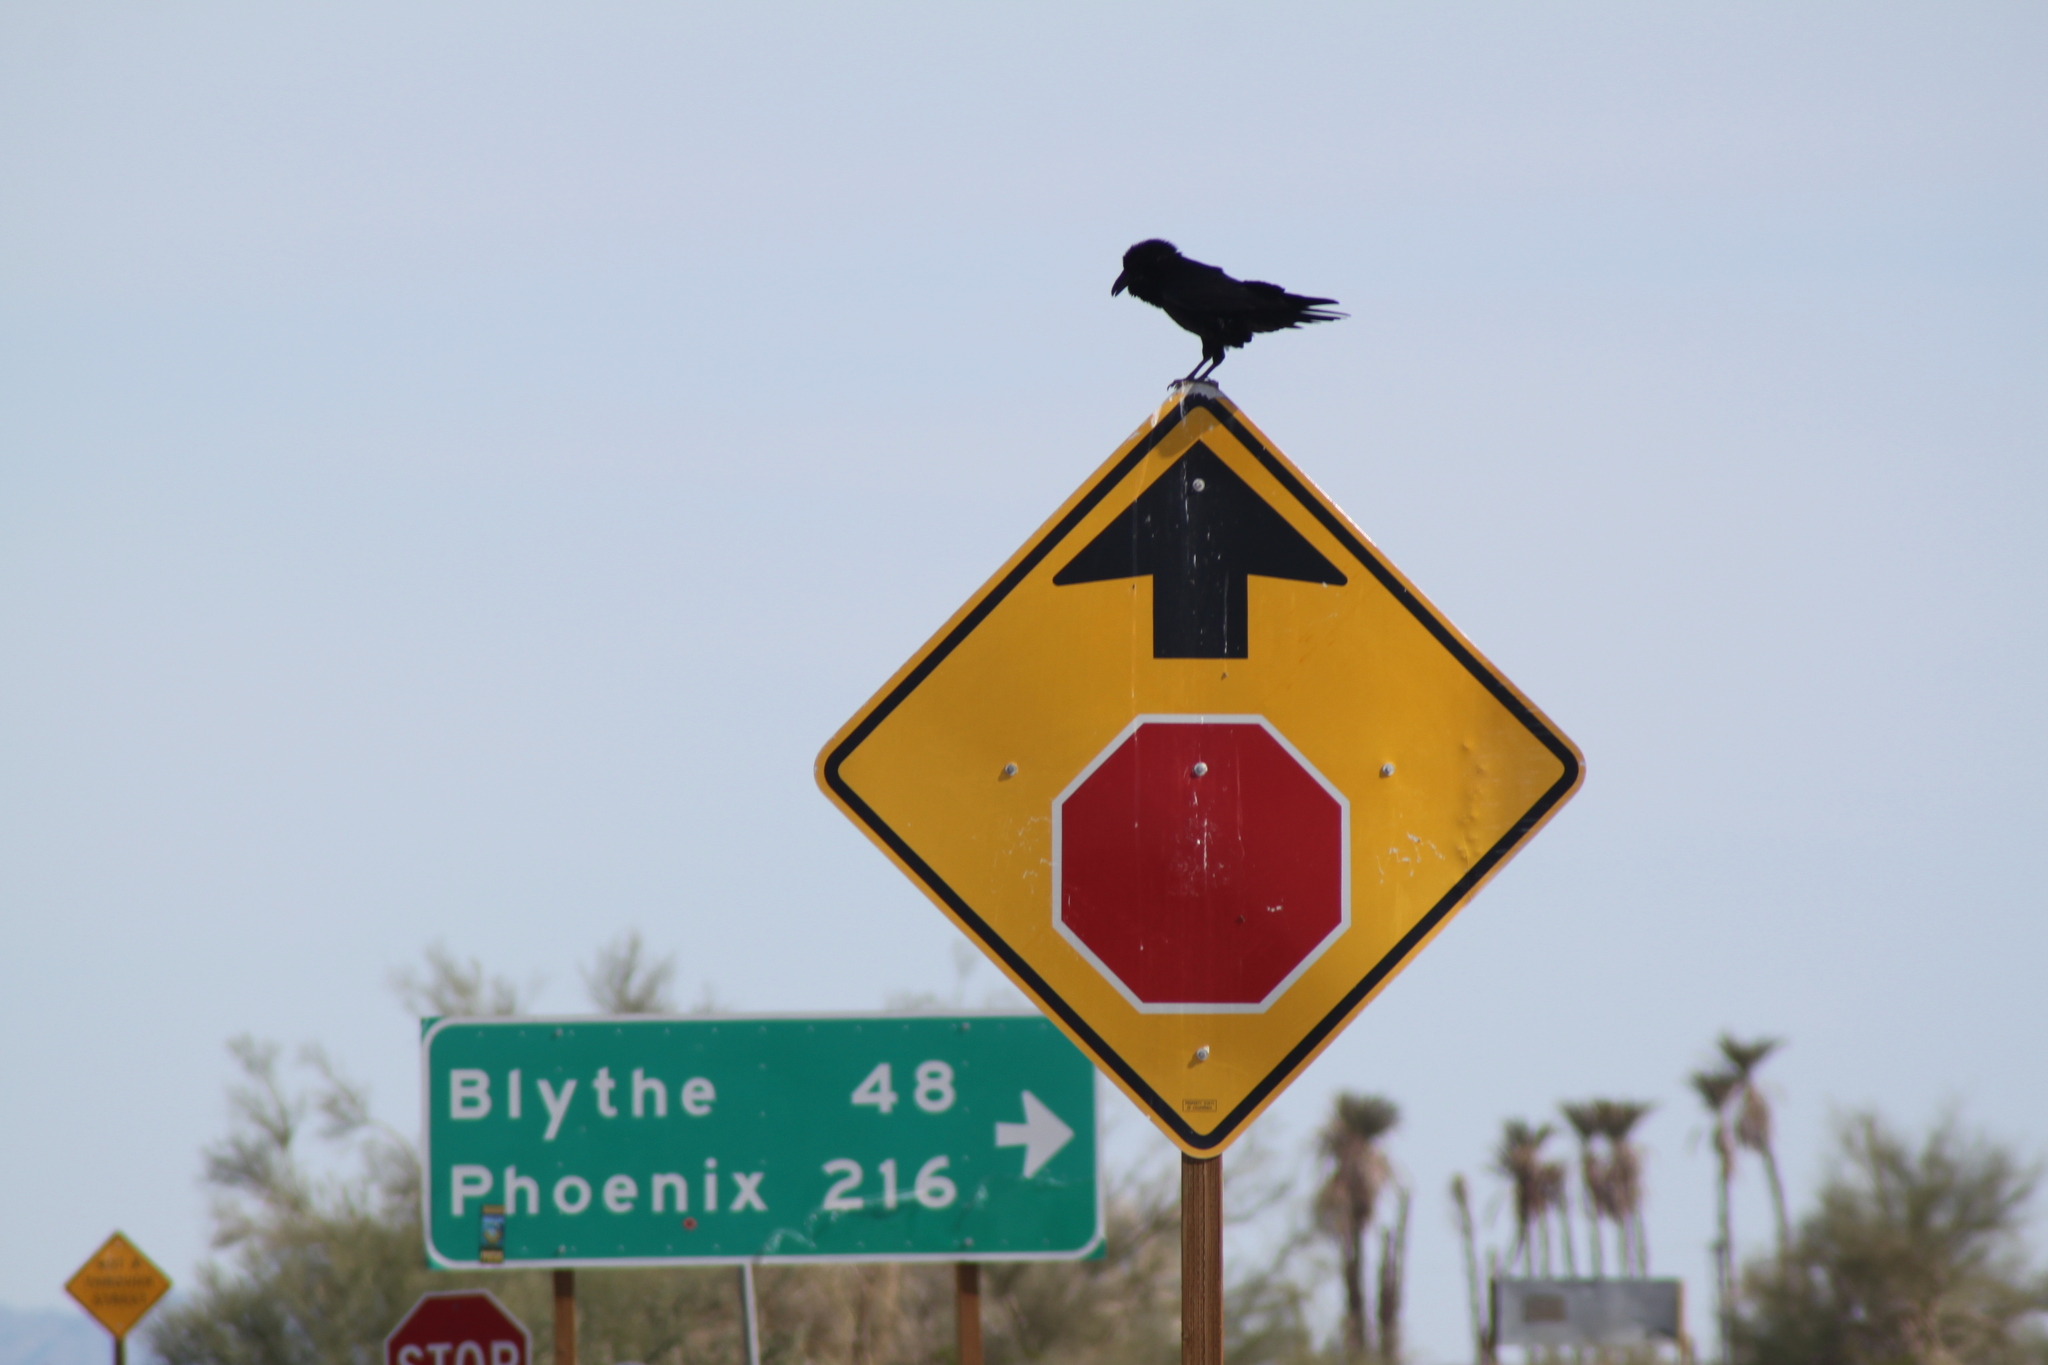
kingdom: Animalia
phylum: Chordata
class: Aves
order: Passeriformes
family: Corvidae
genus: Corvus
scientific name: Corvus corax
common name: Common raven
